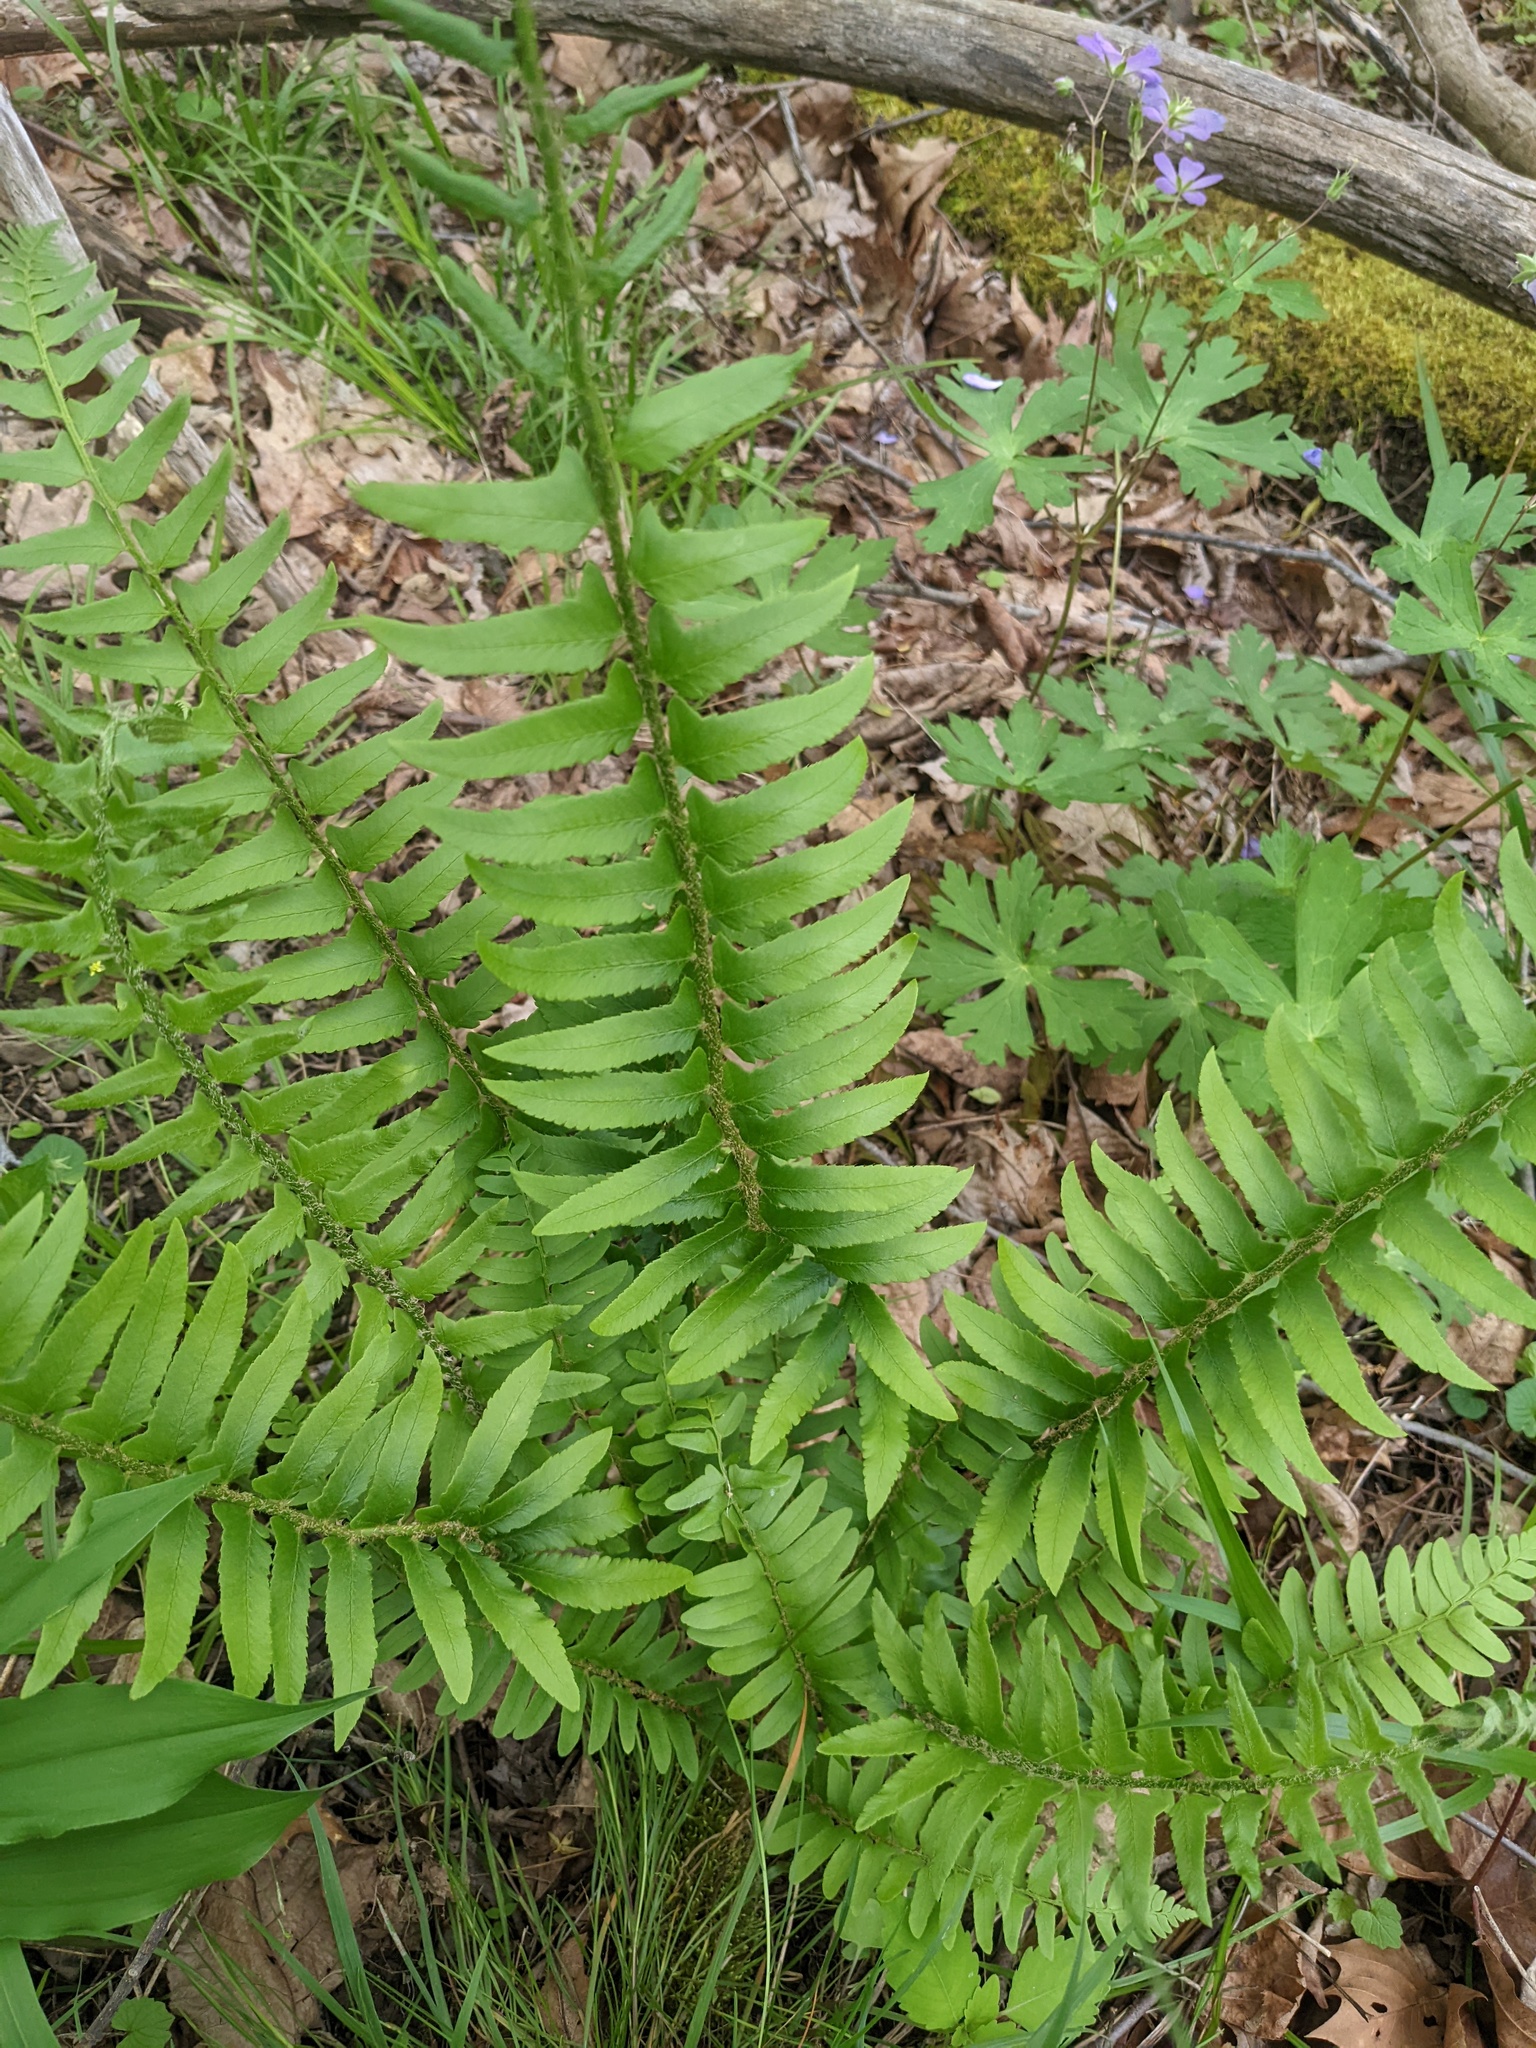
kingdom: Plantae
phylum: Tracheophyta
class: Polypodiopsida
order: Polypodiales
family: Dryopteridaceae
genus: Polystichum
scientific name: Polystichum acrostichoides
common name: Christmas fern
